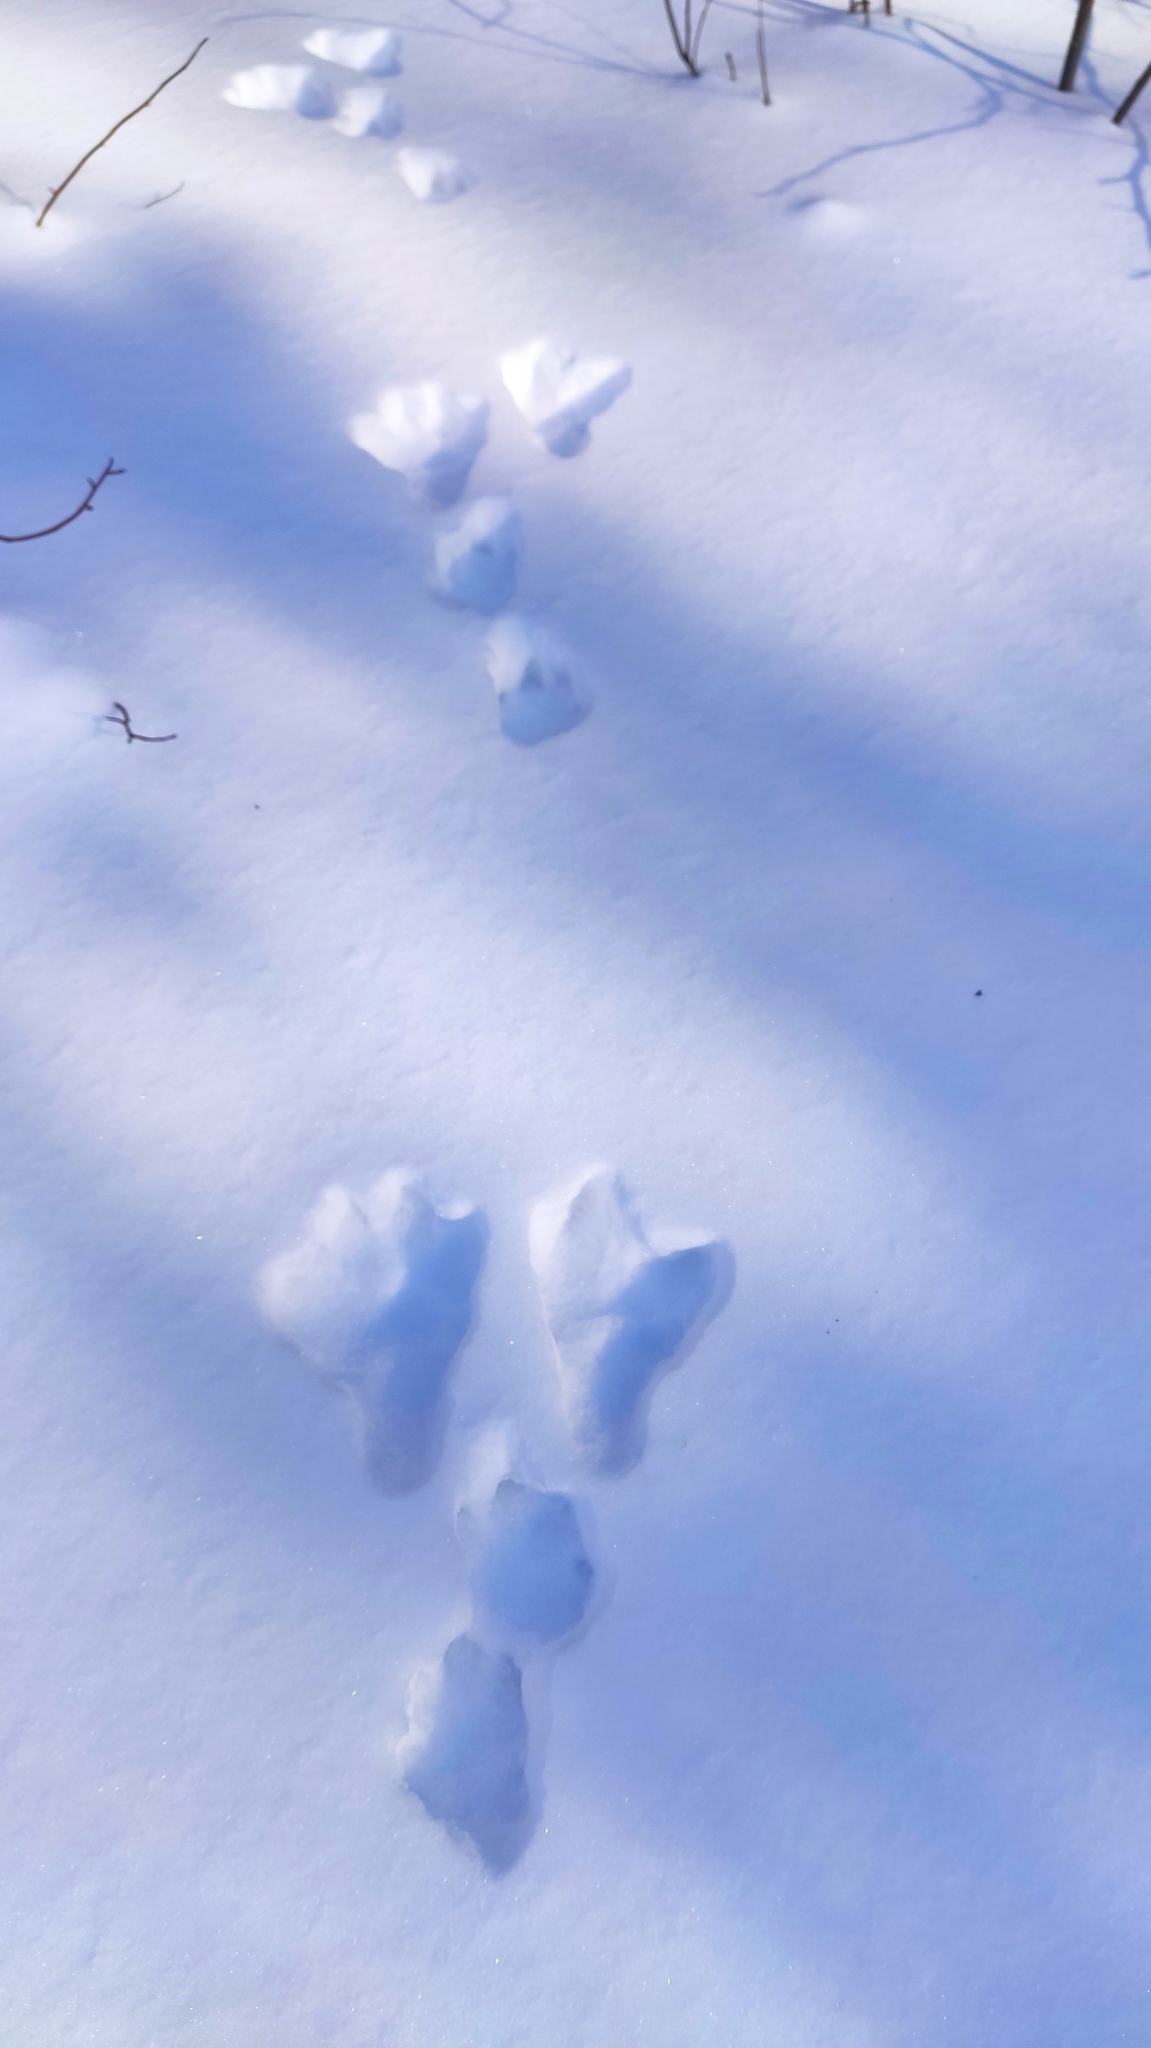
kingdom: Animalia
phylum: Chordata
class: Mammalia
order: Lagomorpha
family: Leporidae
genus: Lepus
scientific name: Lepus timidus
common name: Mountain hare
